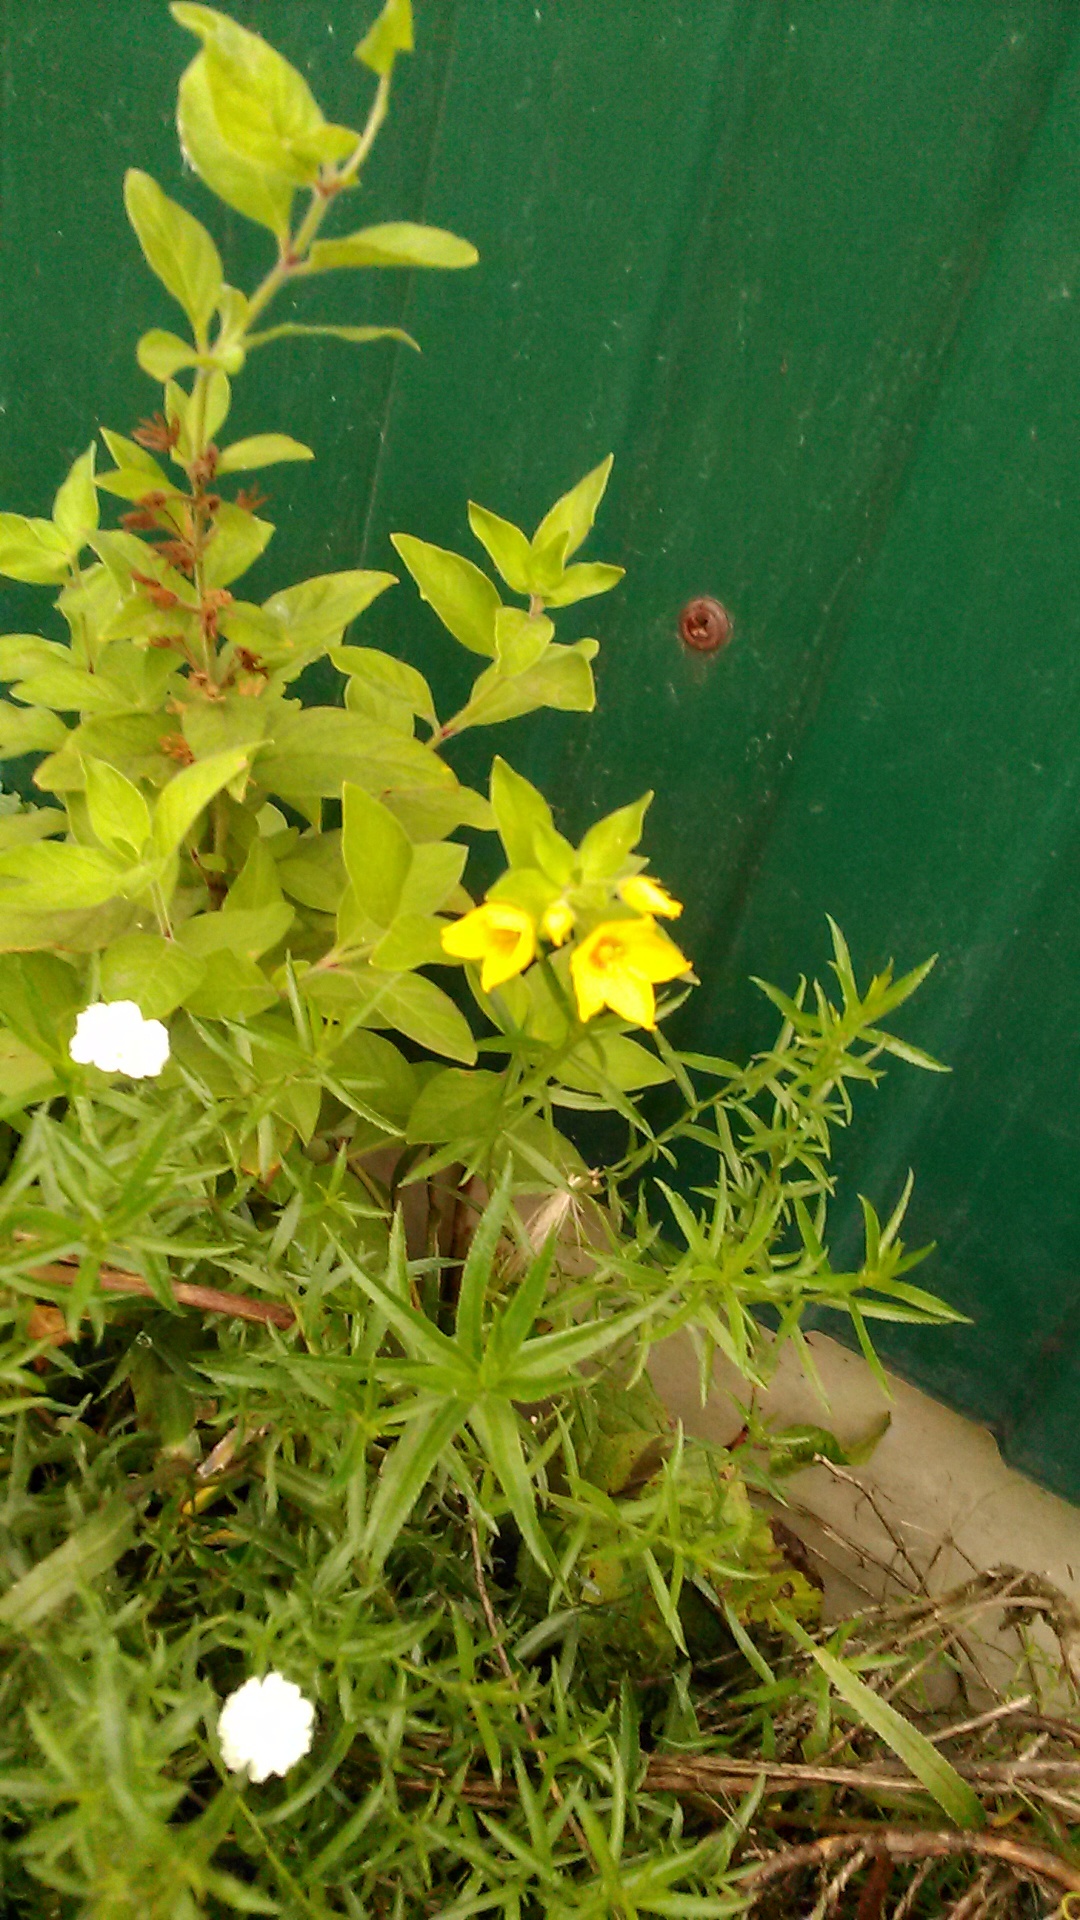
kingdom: Plantae
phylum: Tracheophyta
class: Magnoliopsida
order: Ericales
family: Primulaceae
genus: Lysimachia
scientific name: Lysimachia punctata
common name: Dotted loosestrife
